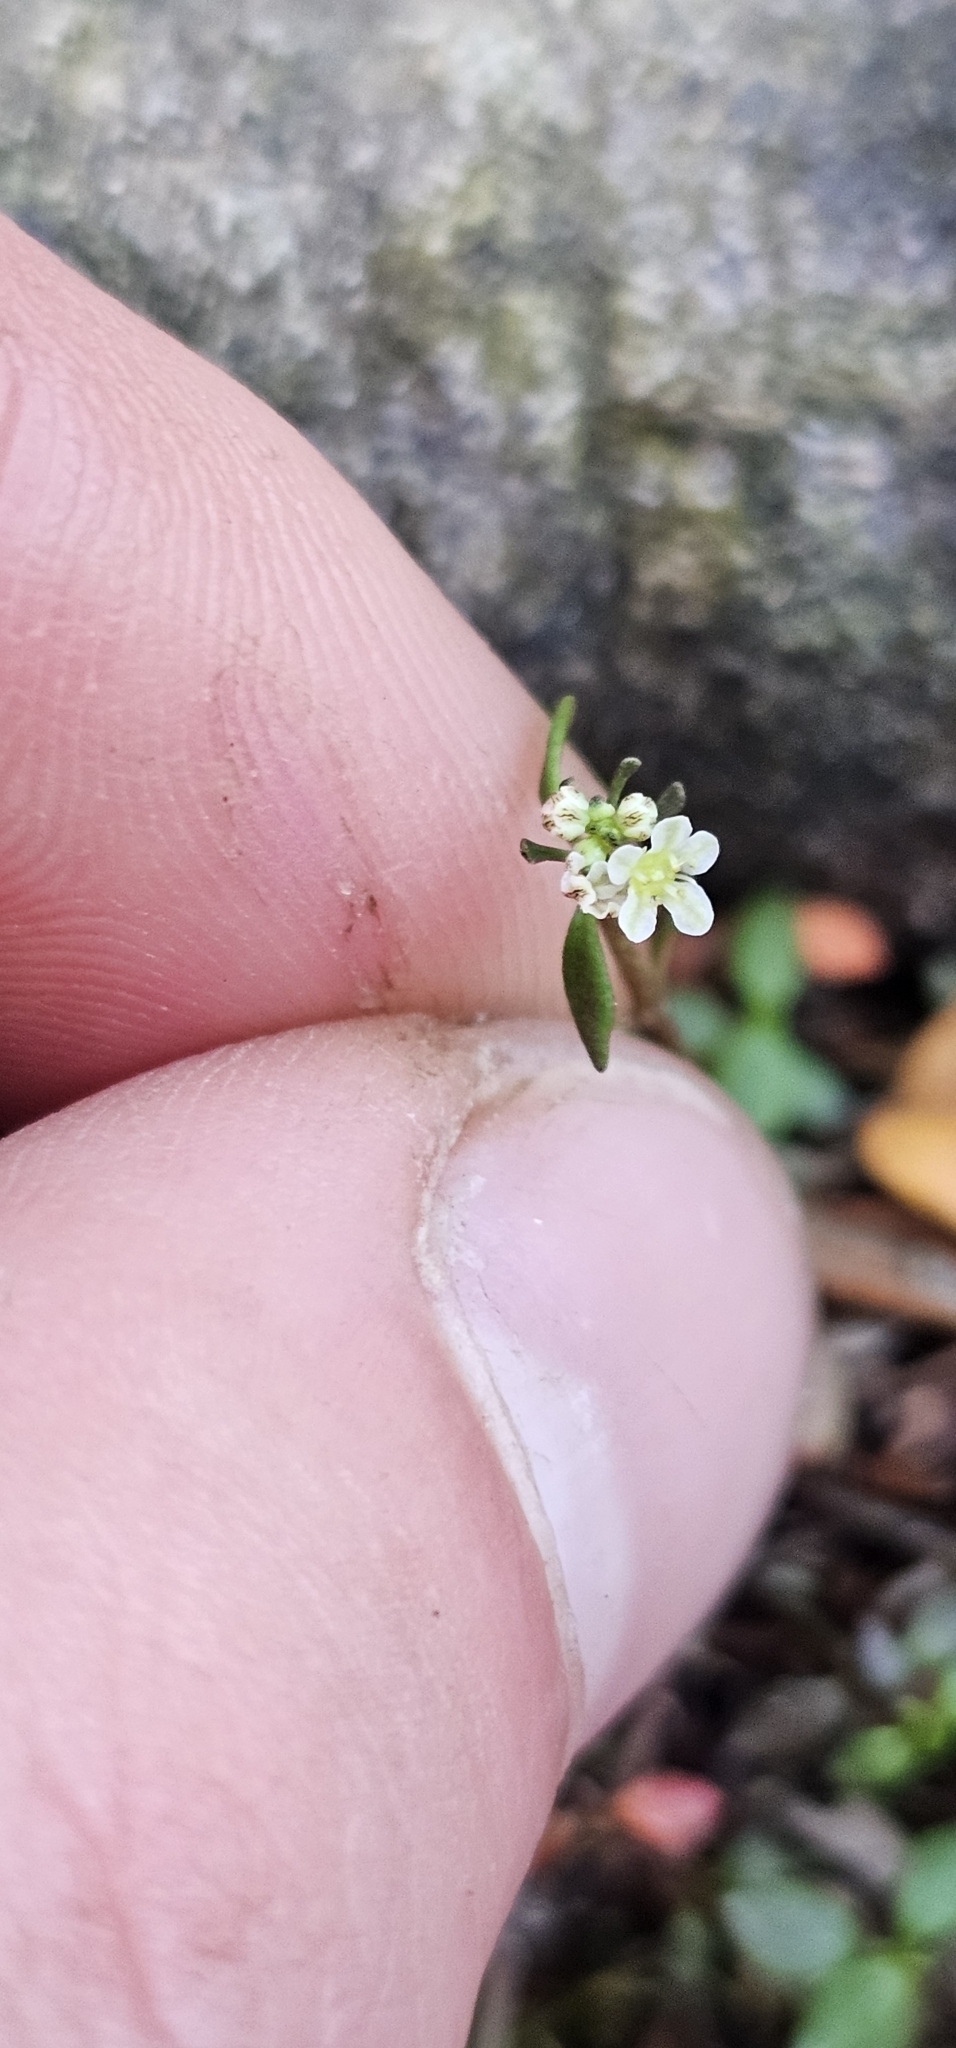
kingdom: Plantae
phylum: Tracheophyta
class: Magnoliopsida
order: Malpighiales
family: Phyllanthaceae
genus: Poranthera
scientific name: Poranthera microphylla
